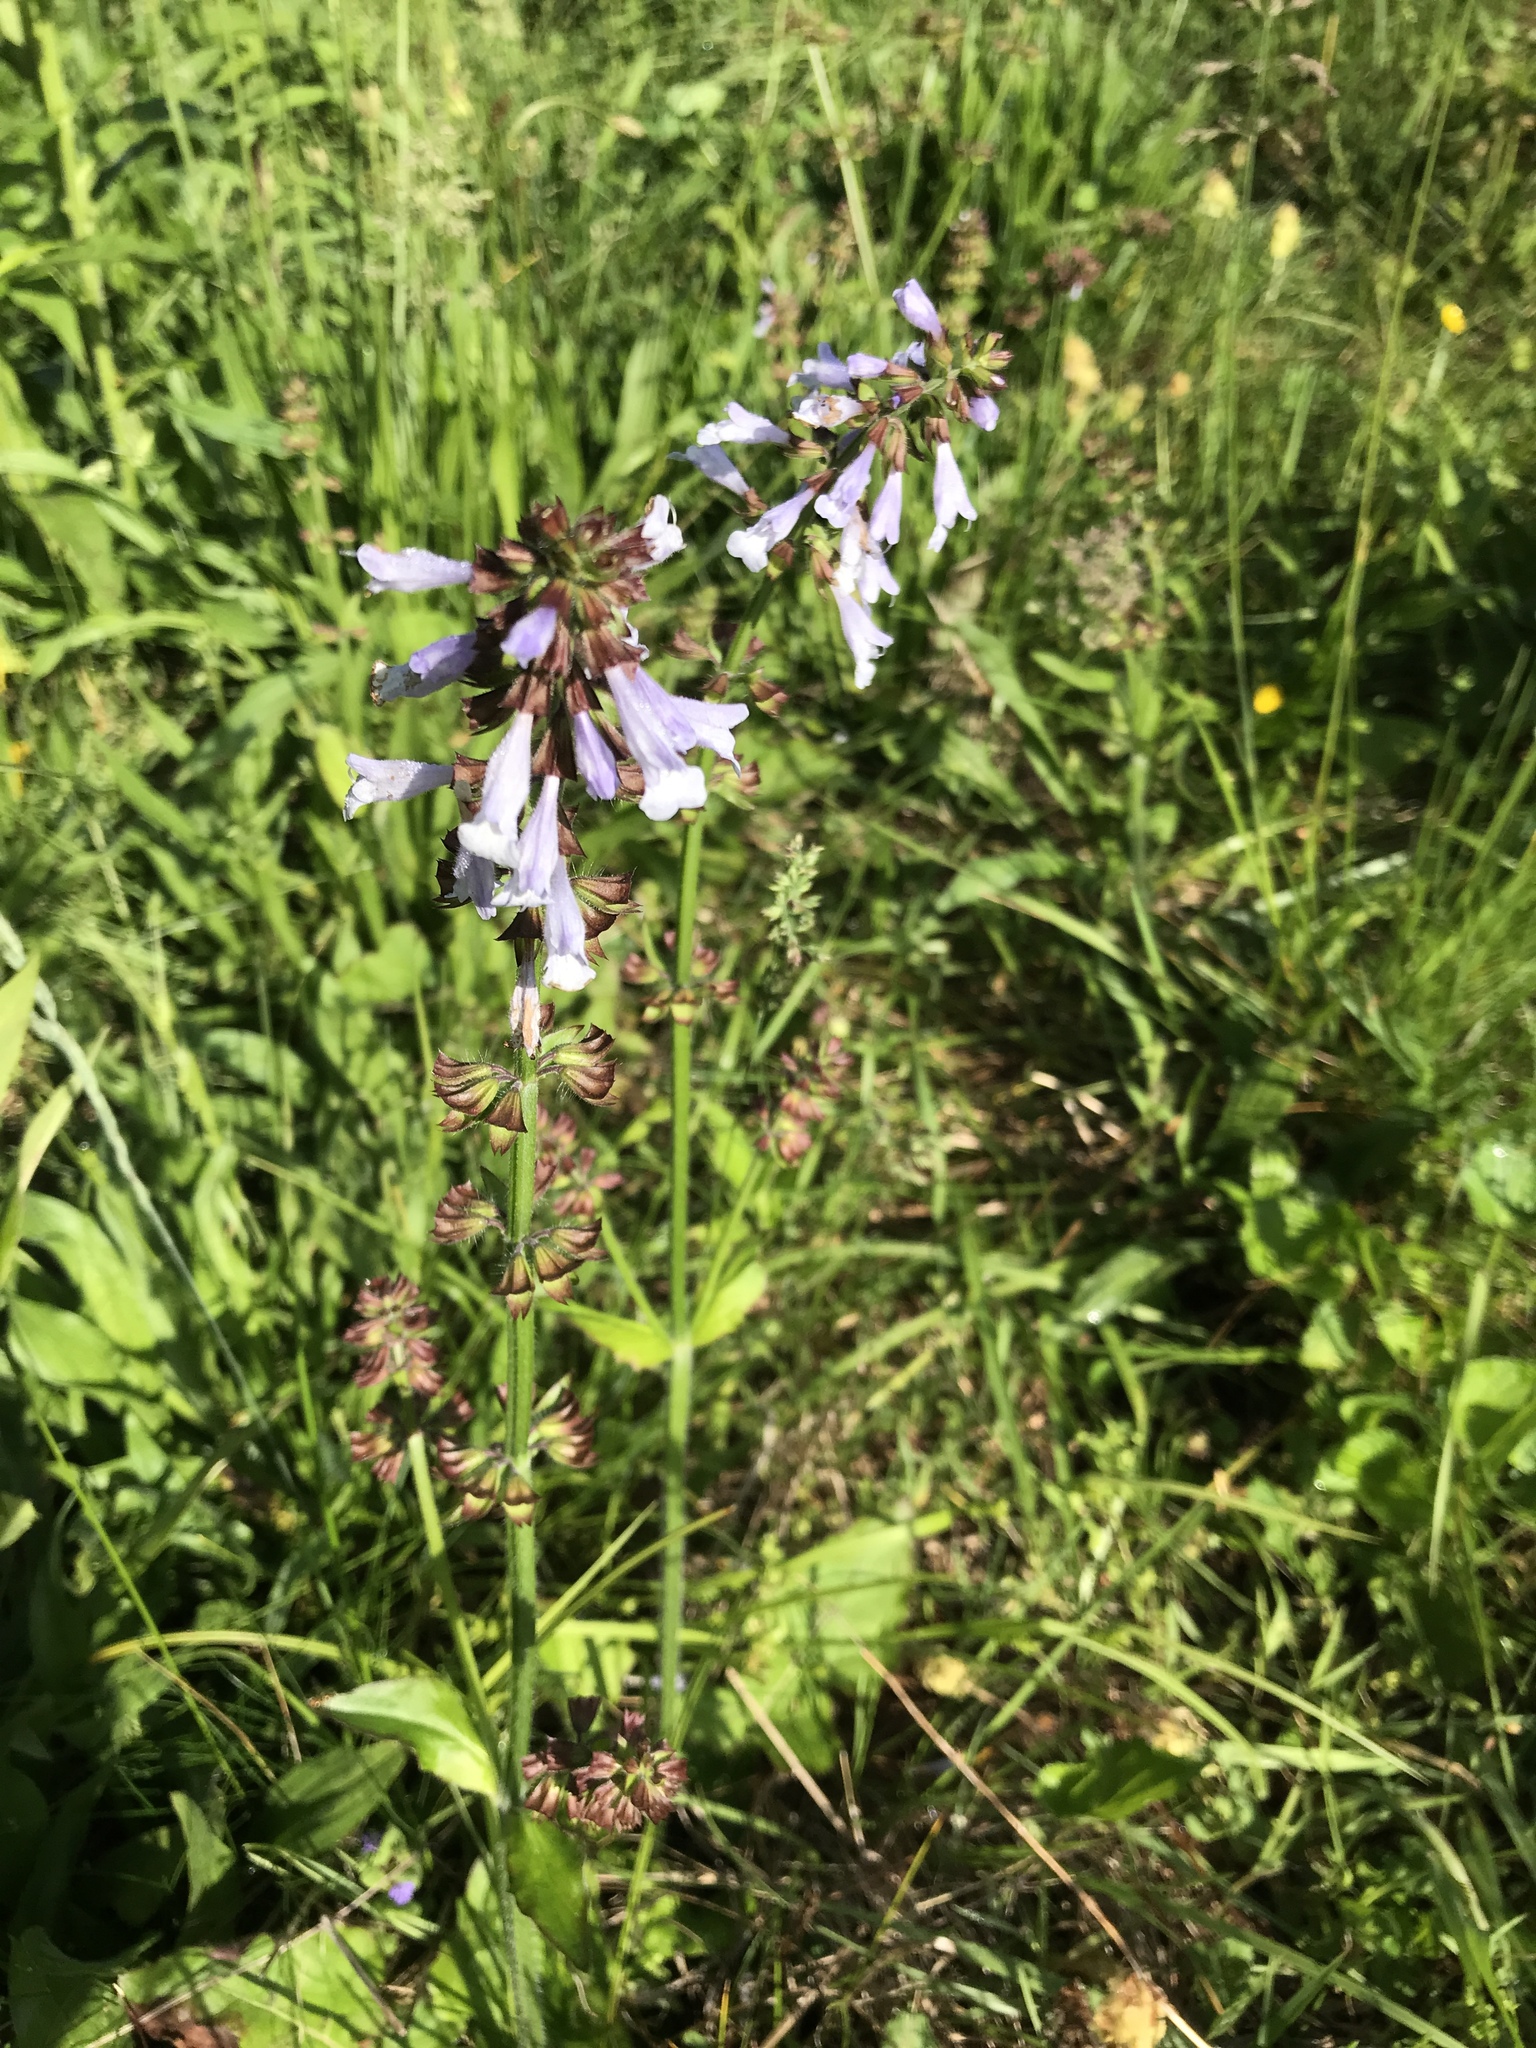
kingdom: Plantae
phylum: Tracheophyta
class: Magnoliopsida
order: Lamiales
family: Lamiaceae
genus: Salvia
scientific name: Salvia lyrata
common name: Cancerweed
